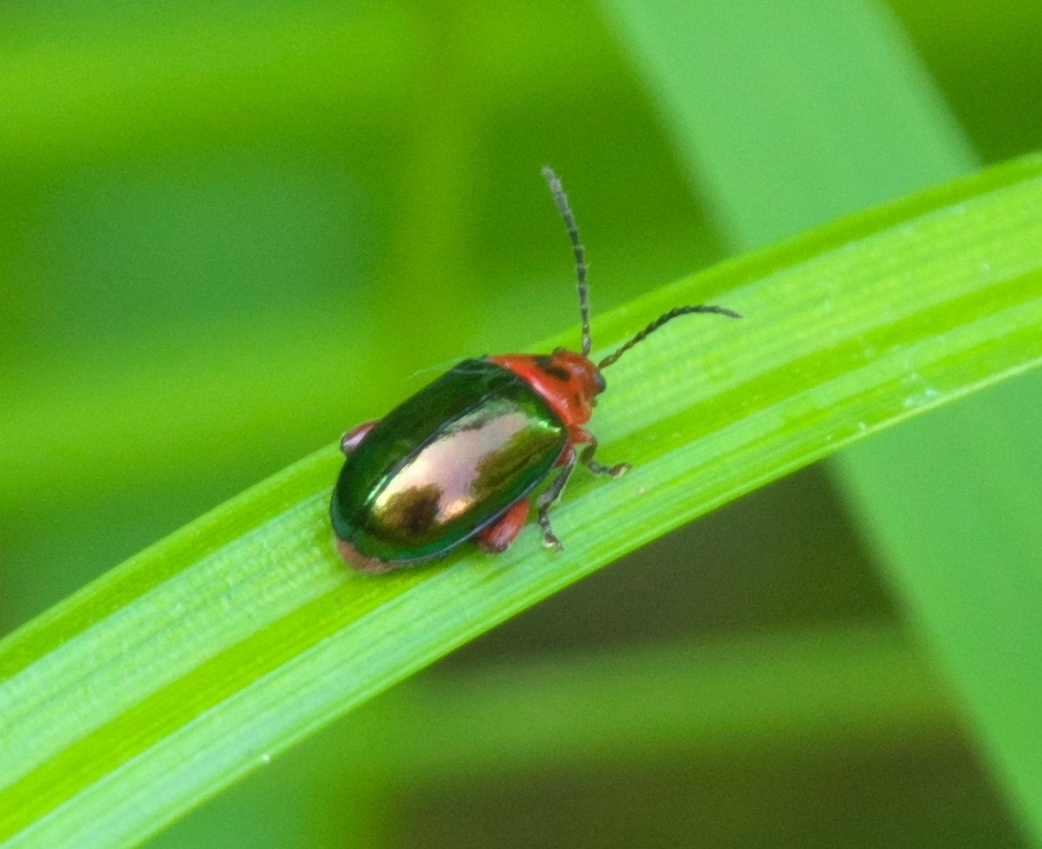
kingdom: Animalia
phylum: Arthropoda
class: Insecta
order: Coleoptera
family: Chrysomelidae
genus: Kuschelina
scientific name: Kuschelina gibbitarsa
